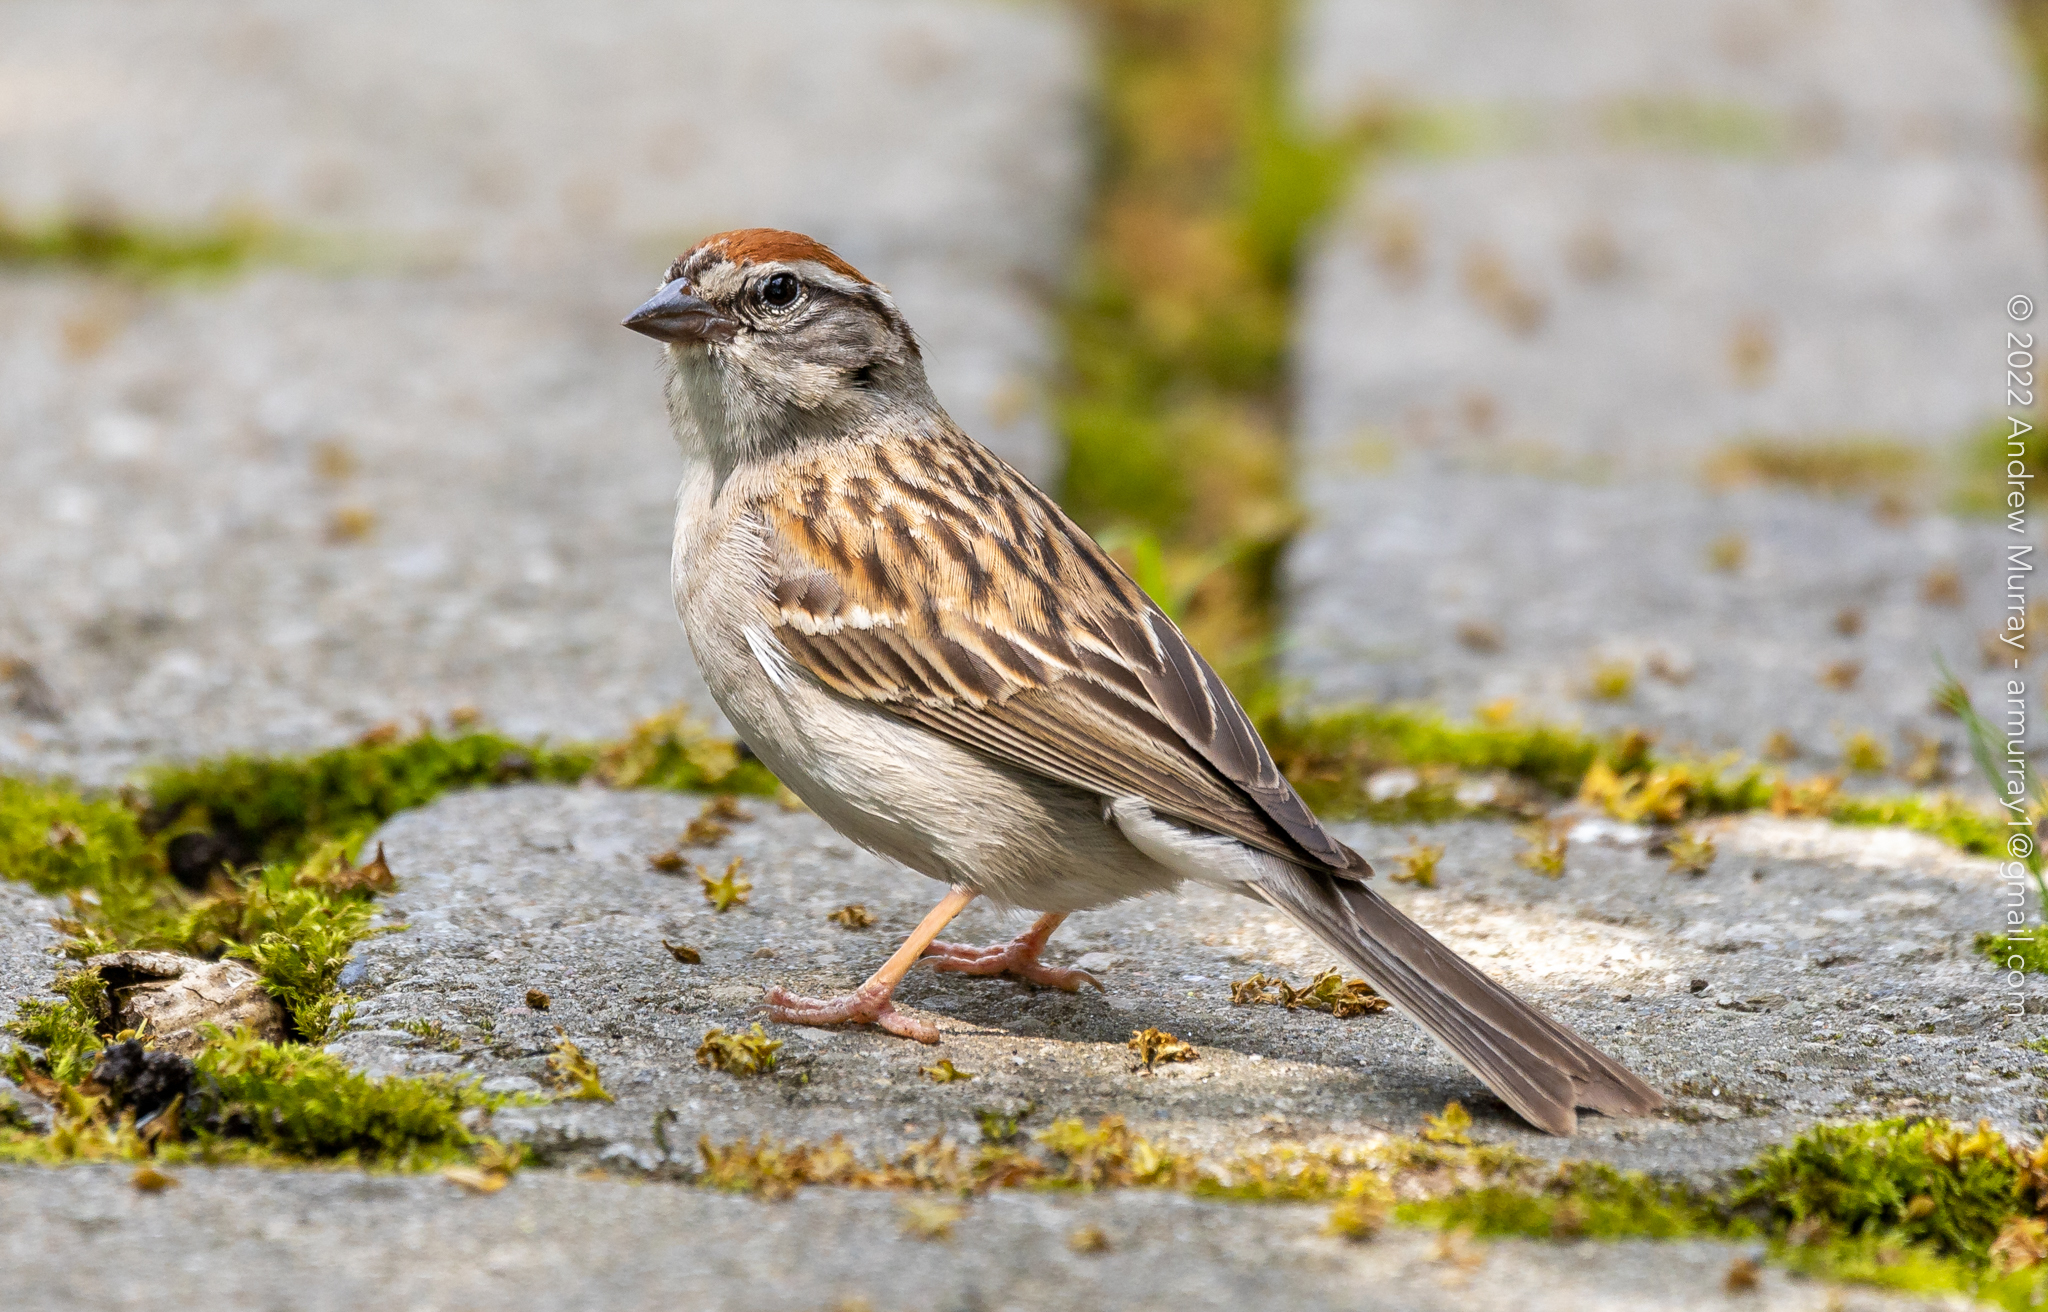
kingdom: Animalia
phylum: Chordata
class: Aves
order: Passeriformes
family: Passerellidae
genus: Spizella
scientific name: Spizella passerina
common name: Chipping sparrow
